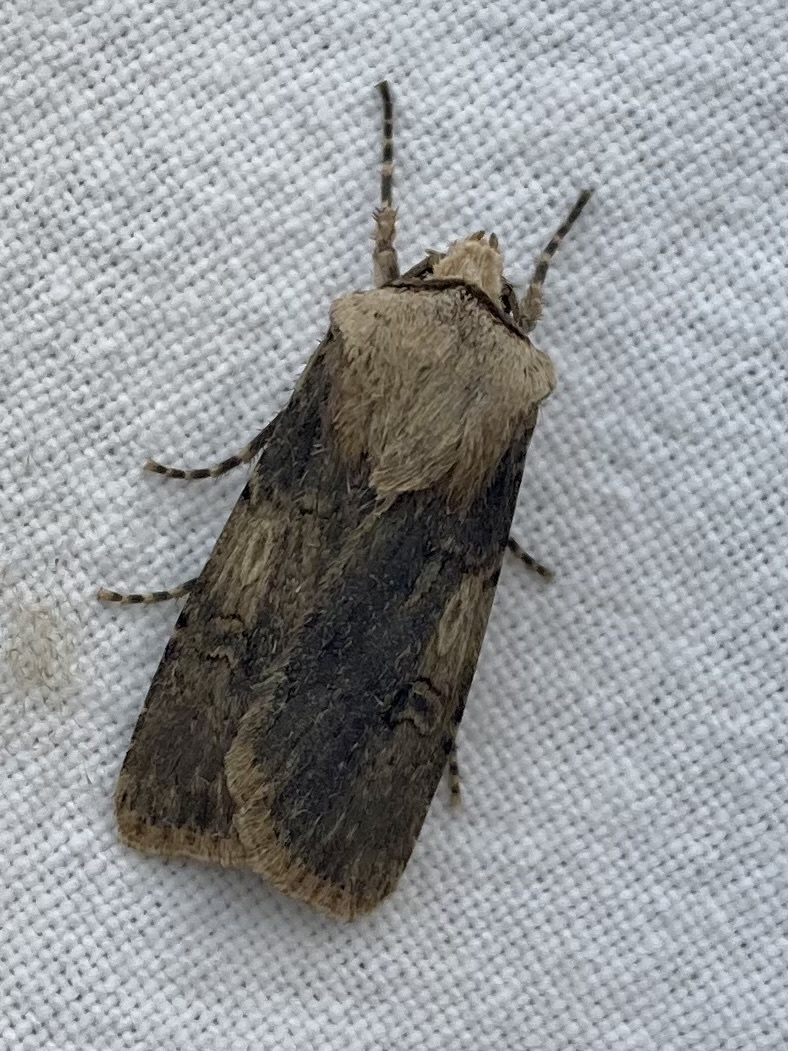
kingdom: Animalia
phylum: Arthropoda
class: Insecta
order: Lepidoptera
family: Noctuidae
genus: Agrotis
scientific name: Agrotis puta
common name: Shuttle-shaped dart
